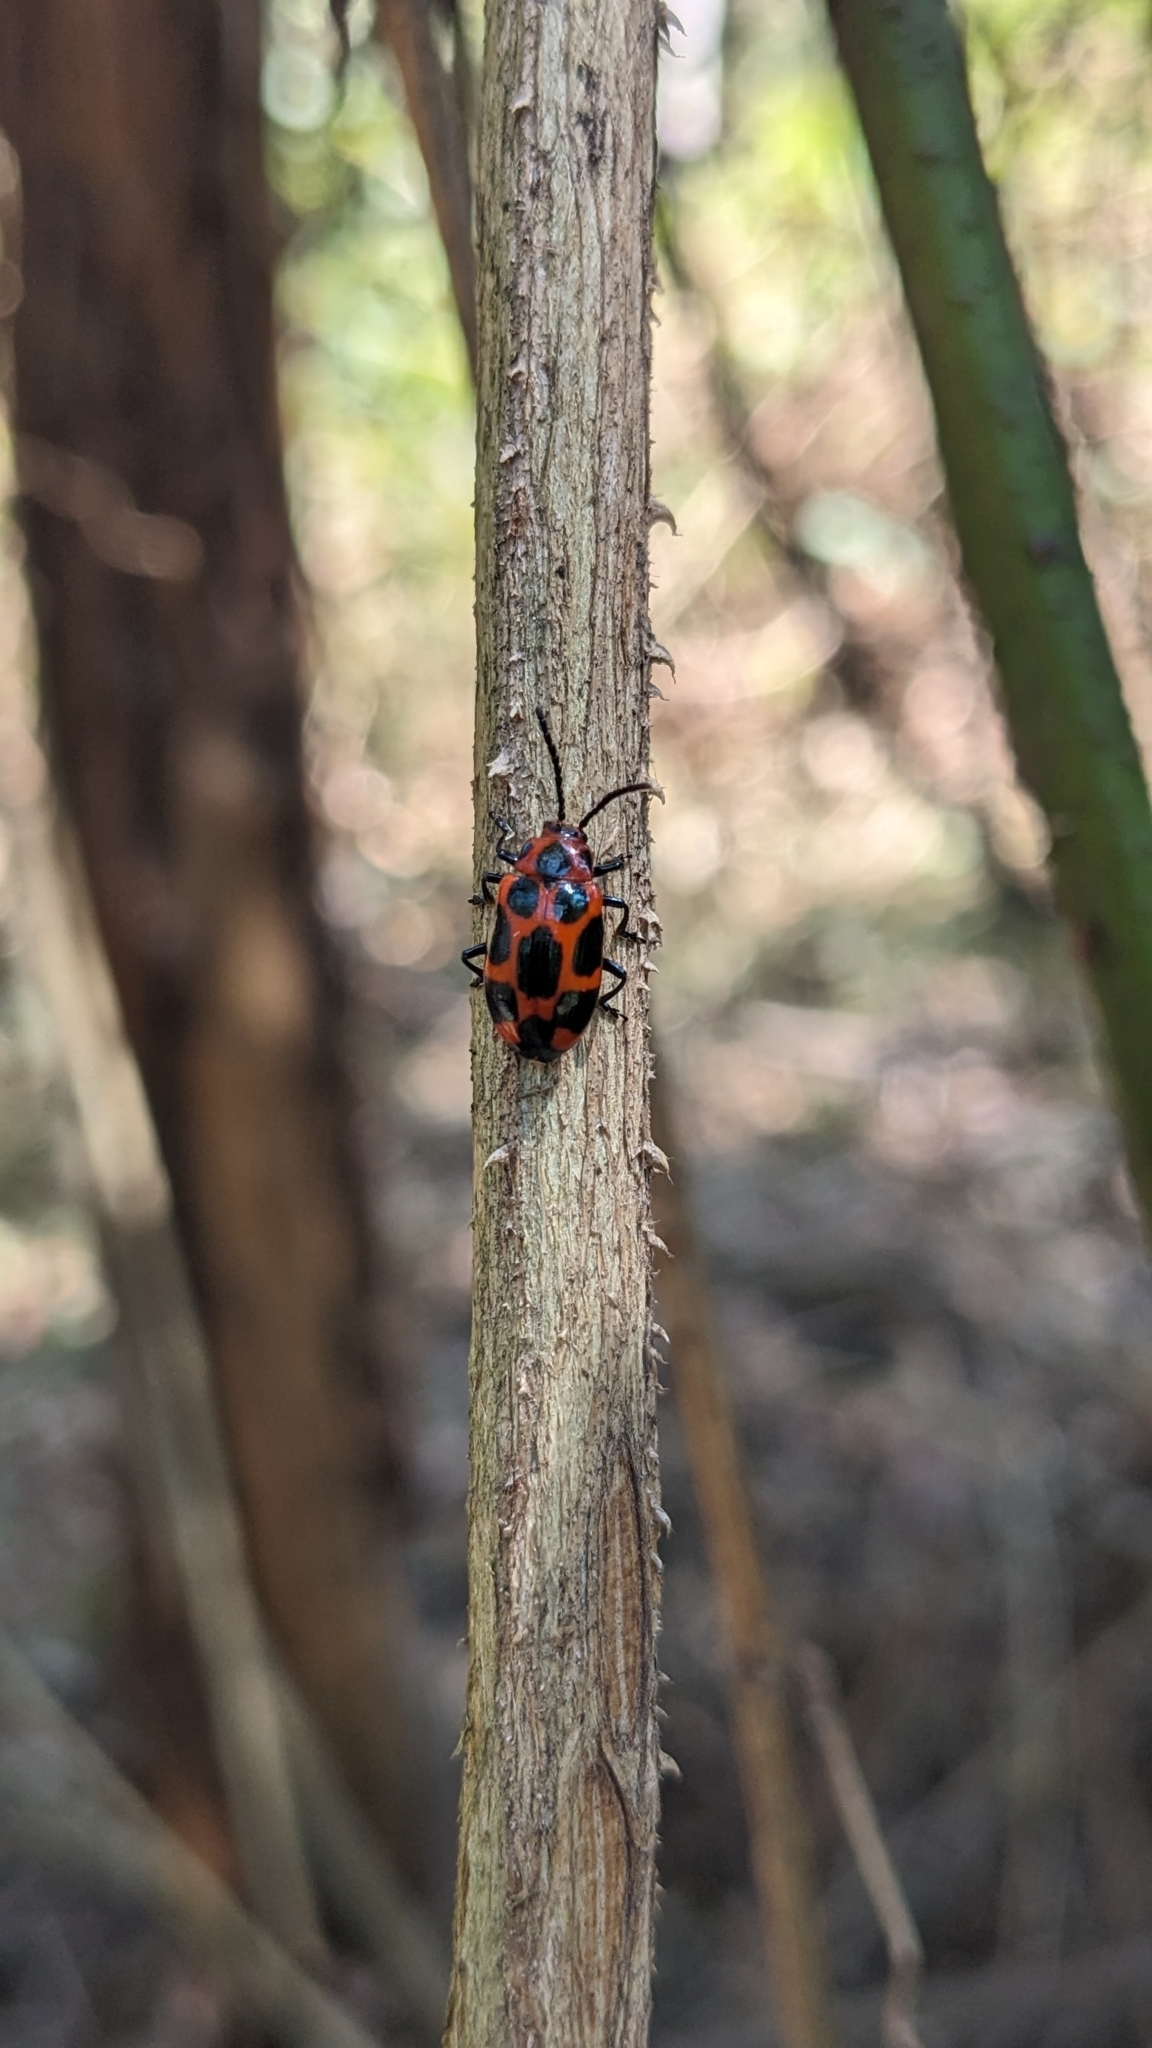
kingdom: Animalia
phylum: Arthropoda
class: Insecta
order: Coleoptera
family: Chrysomelidae
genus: Phyllocharis
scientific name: Phyllocharis
